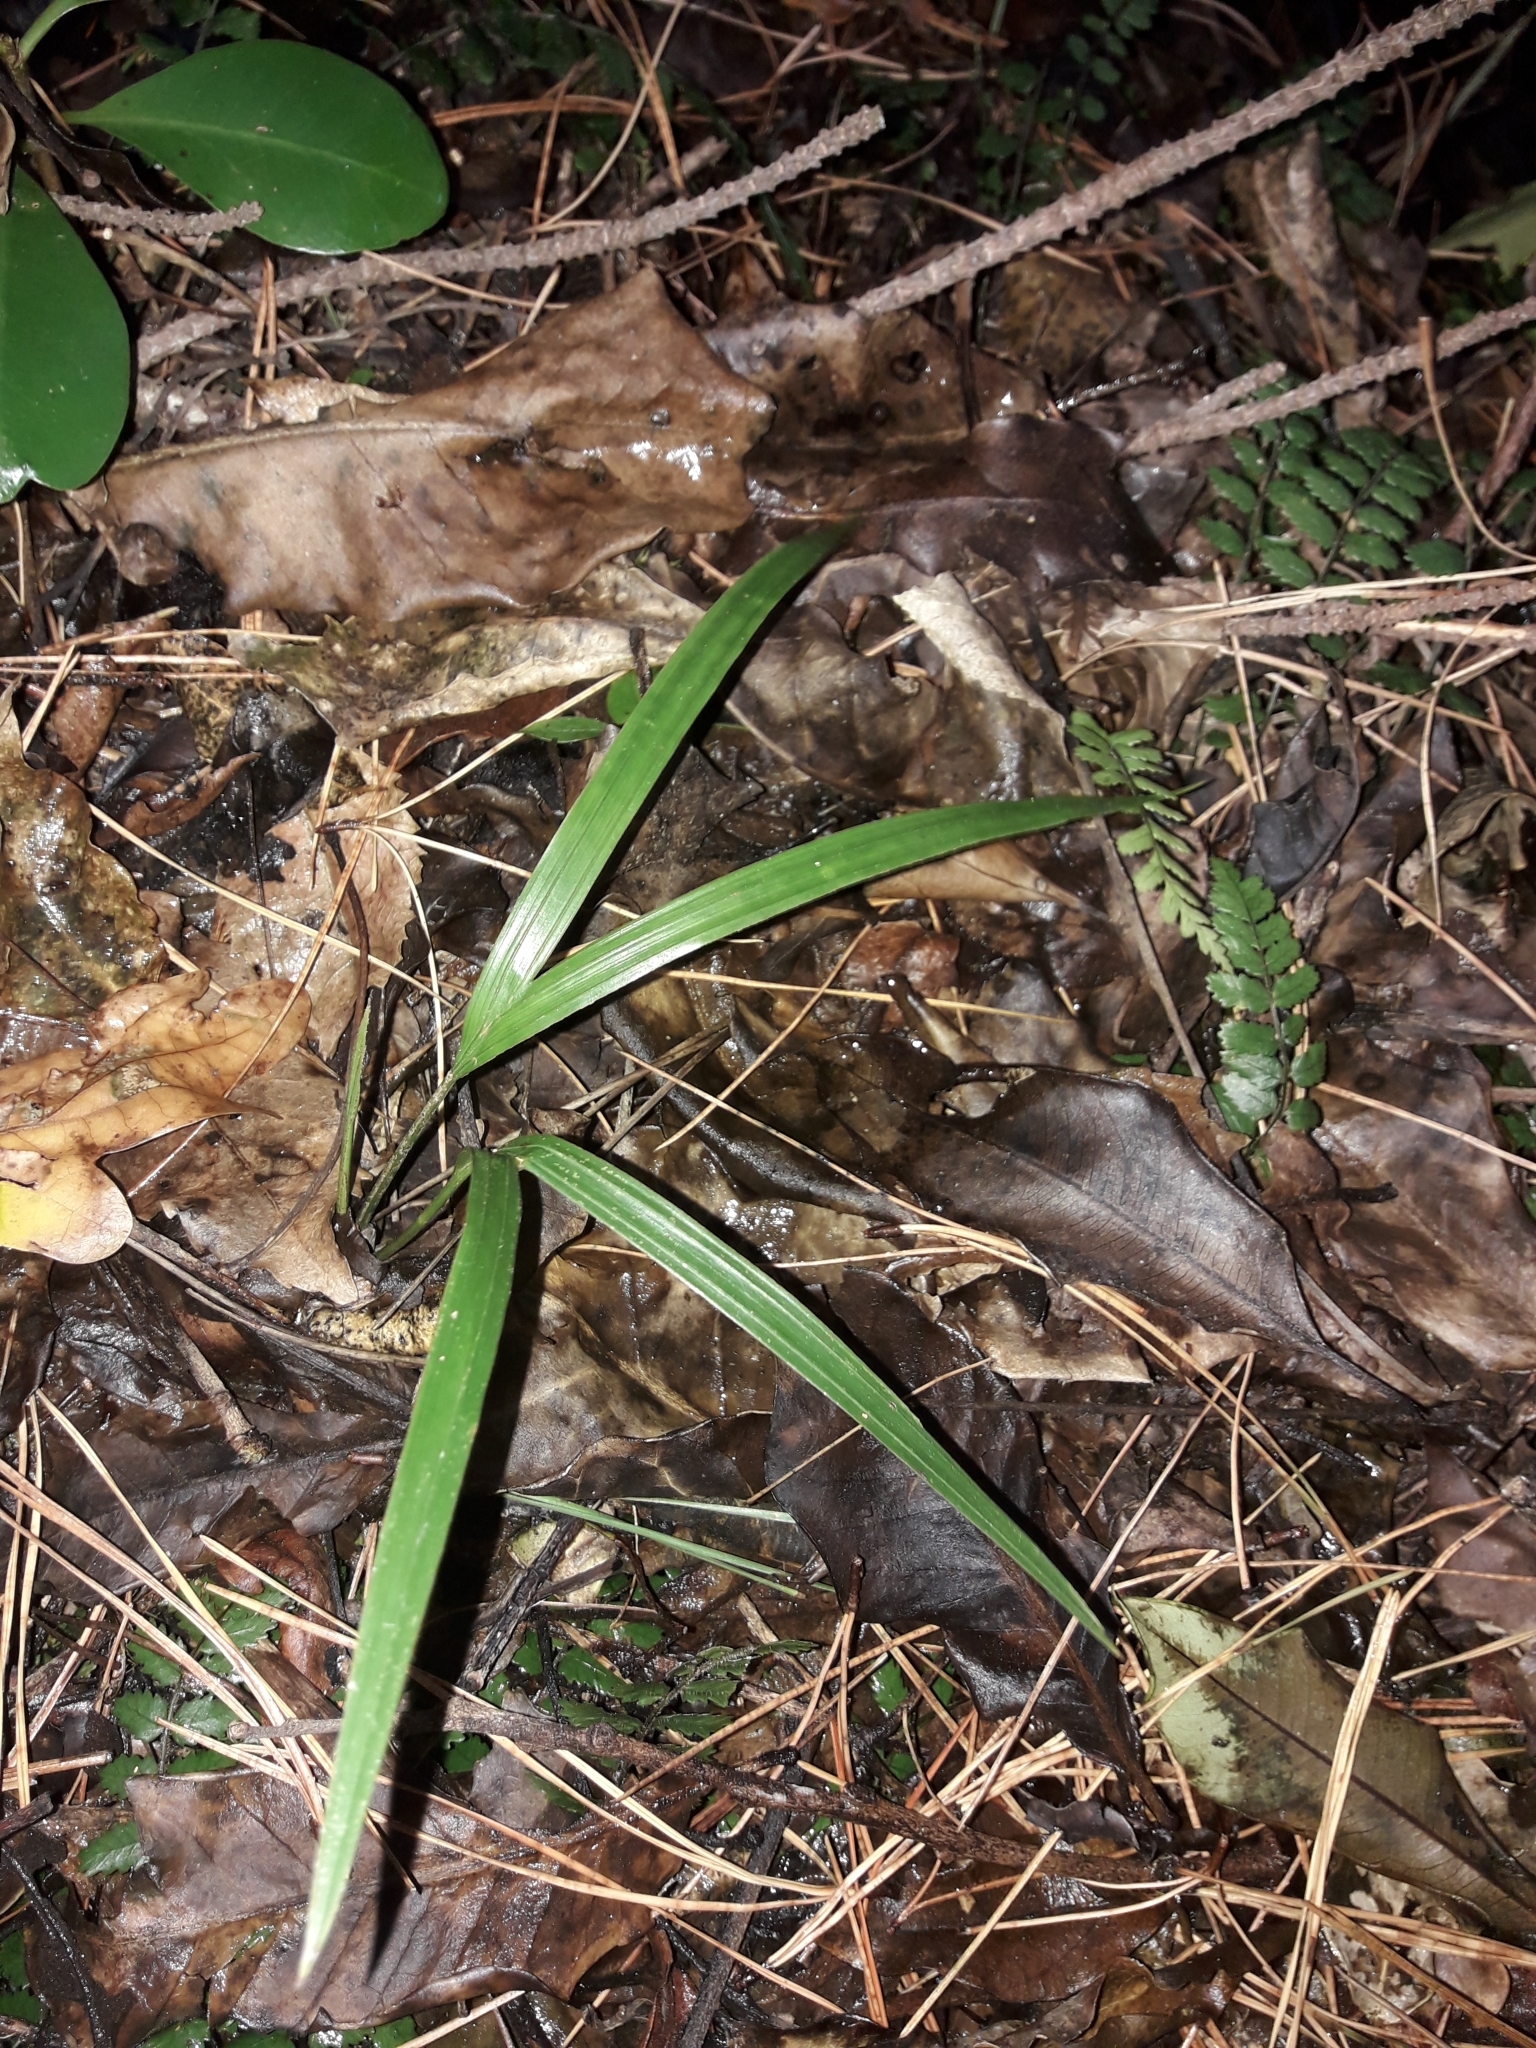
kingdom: Plantae
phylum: Tracheophyta
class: Liliopsida
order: Arecales
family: Arecaceae
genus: Rhopalostylis
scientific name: Rhopalostylis sapida
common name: Feather-duster palm
